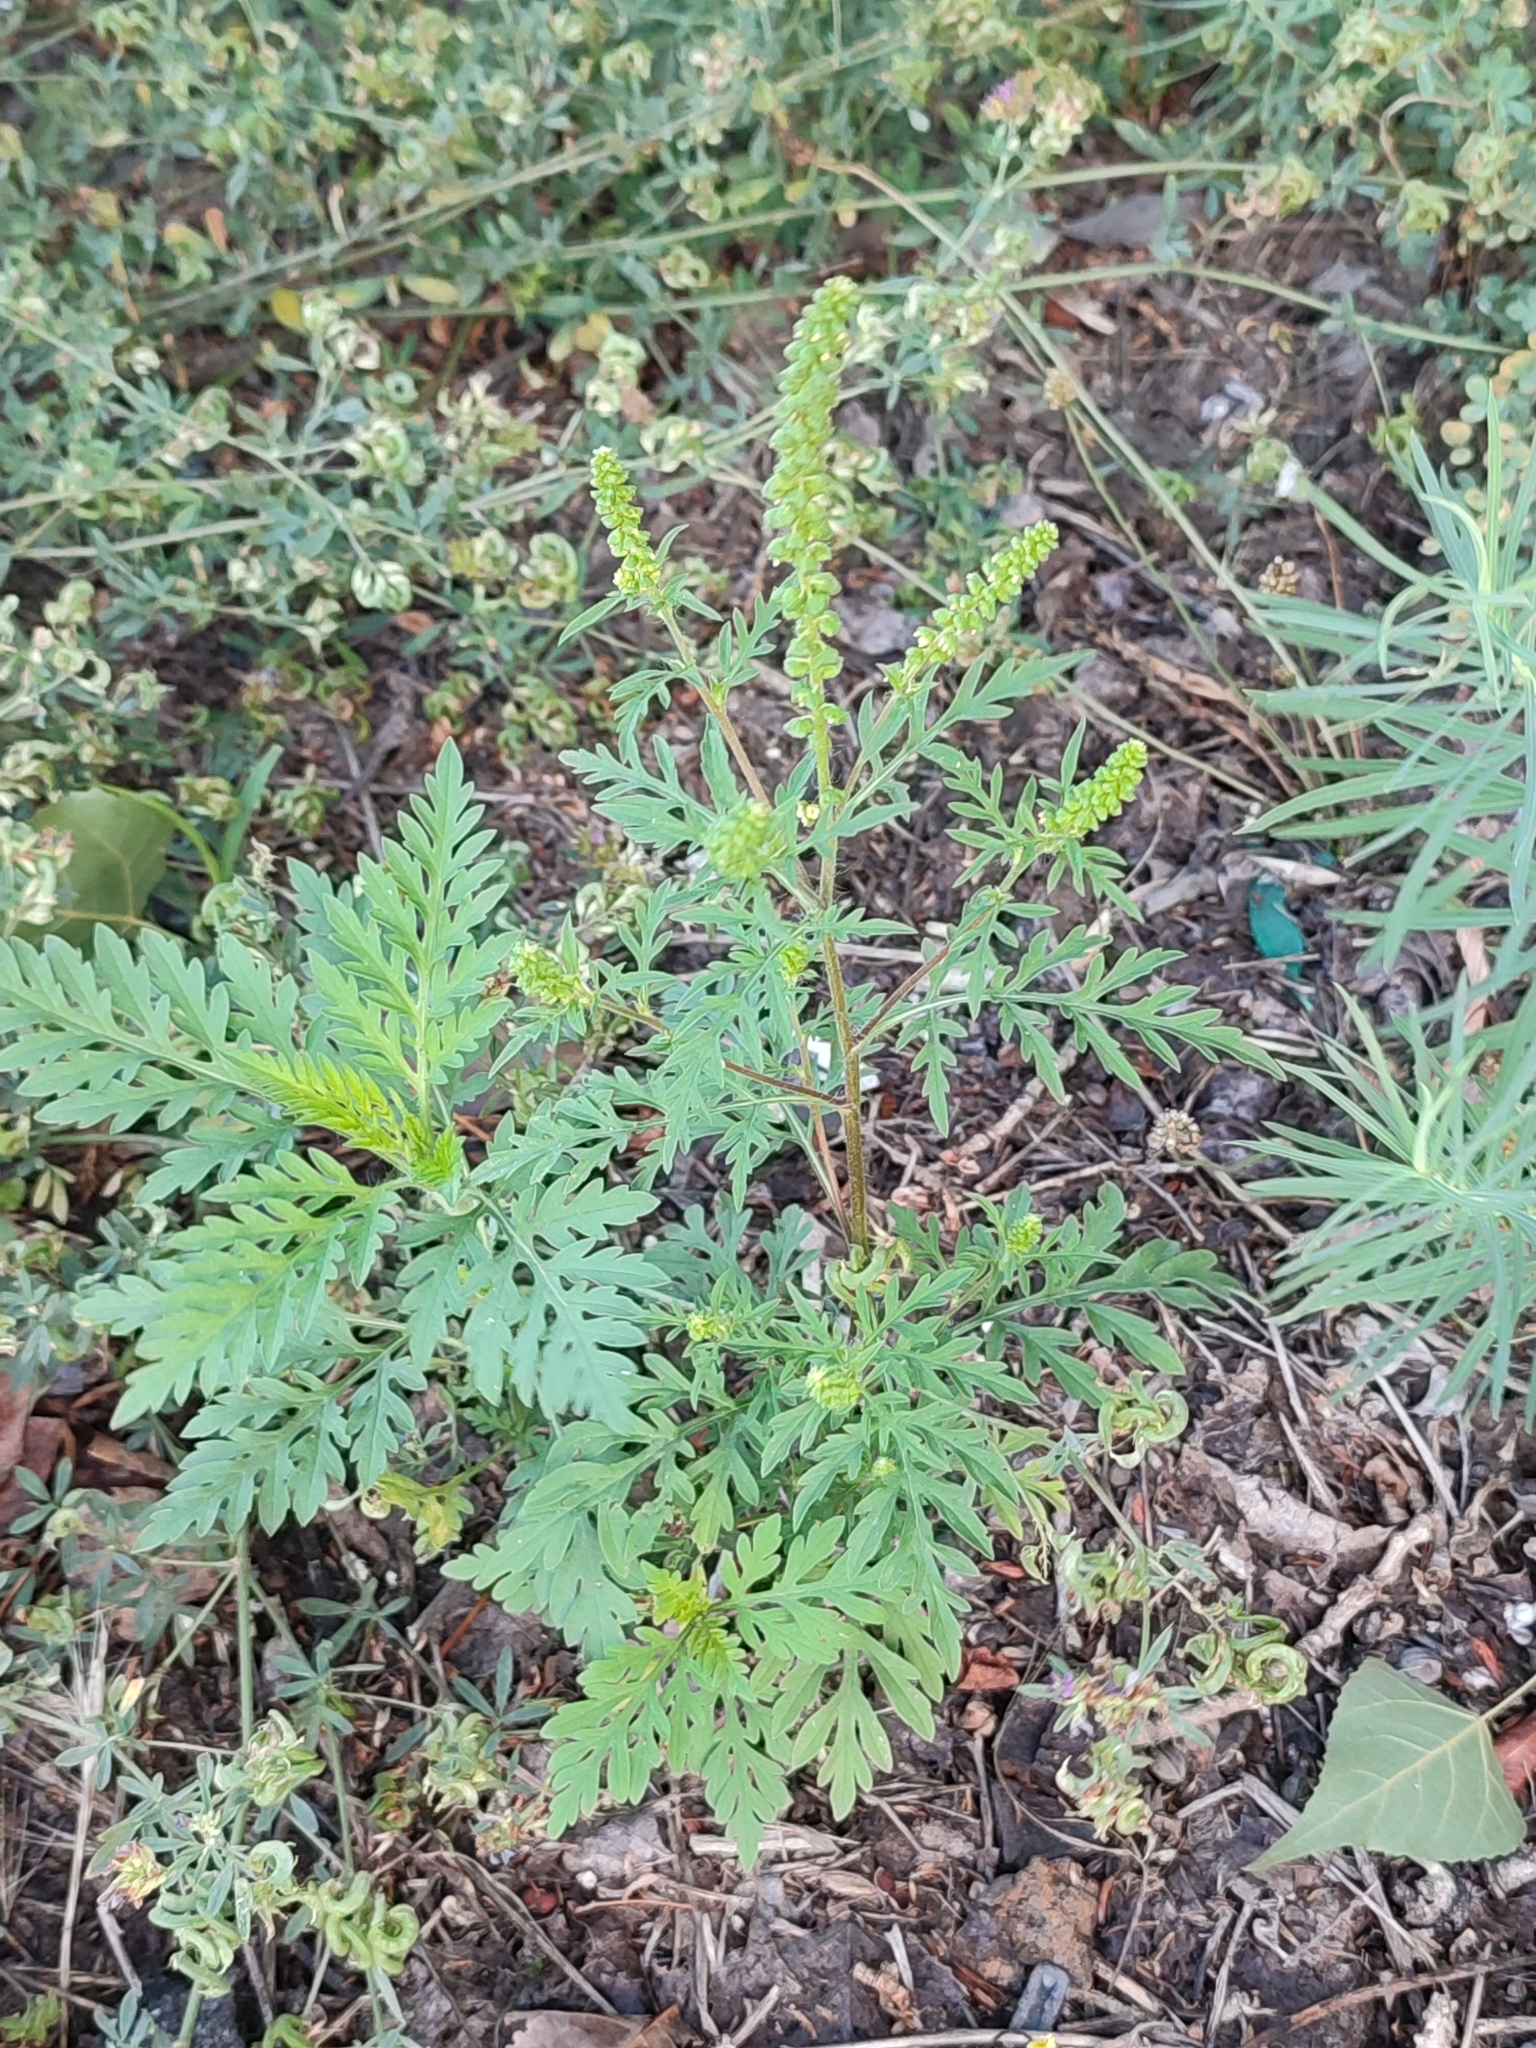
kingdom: Plantae
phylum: Tracheophyta
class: Magnoliopsida
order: Asterales
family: Asteraceae
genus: Ambrosia
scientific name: Ambrosia artemisiifolia
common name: Annual ragweed
